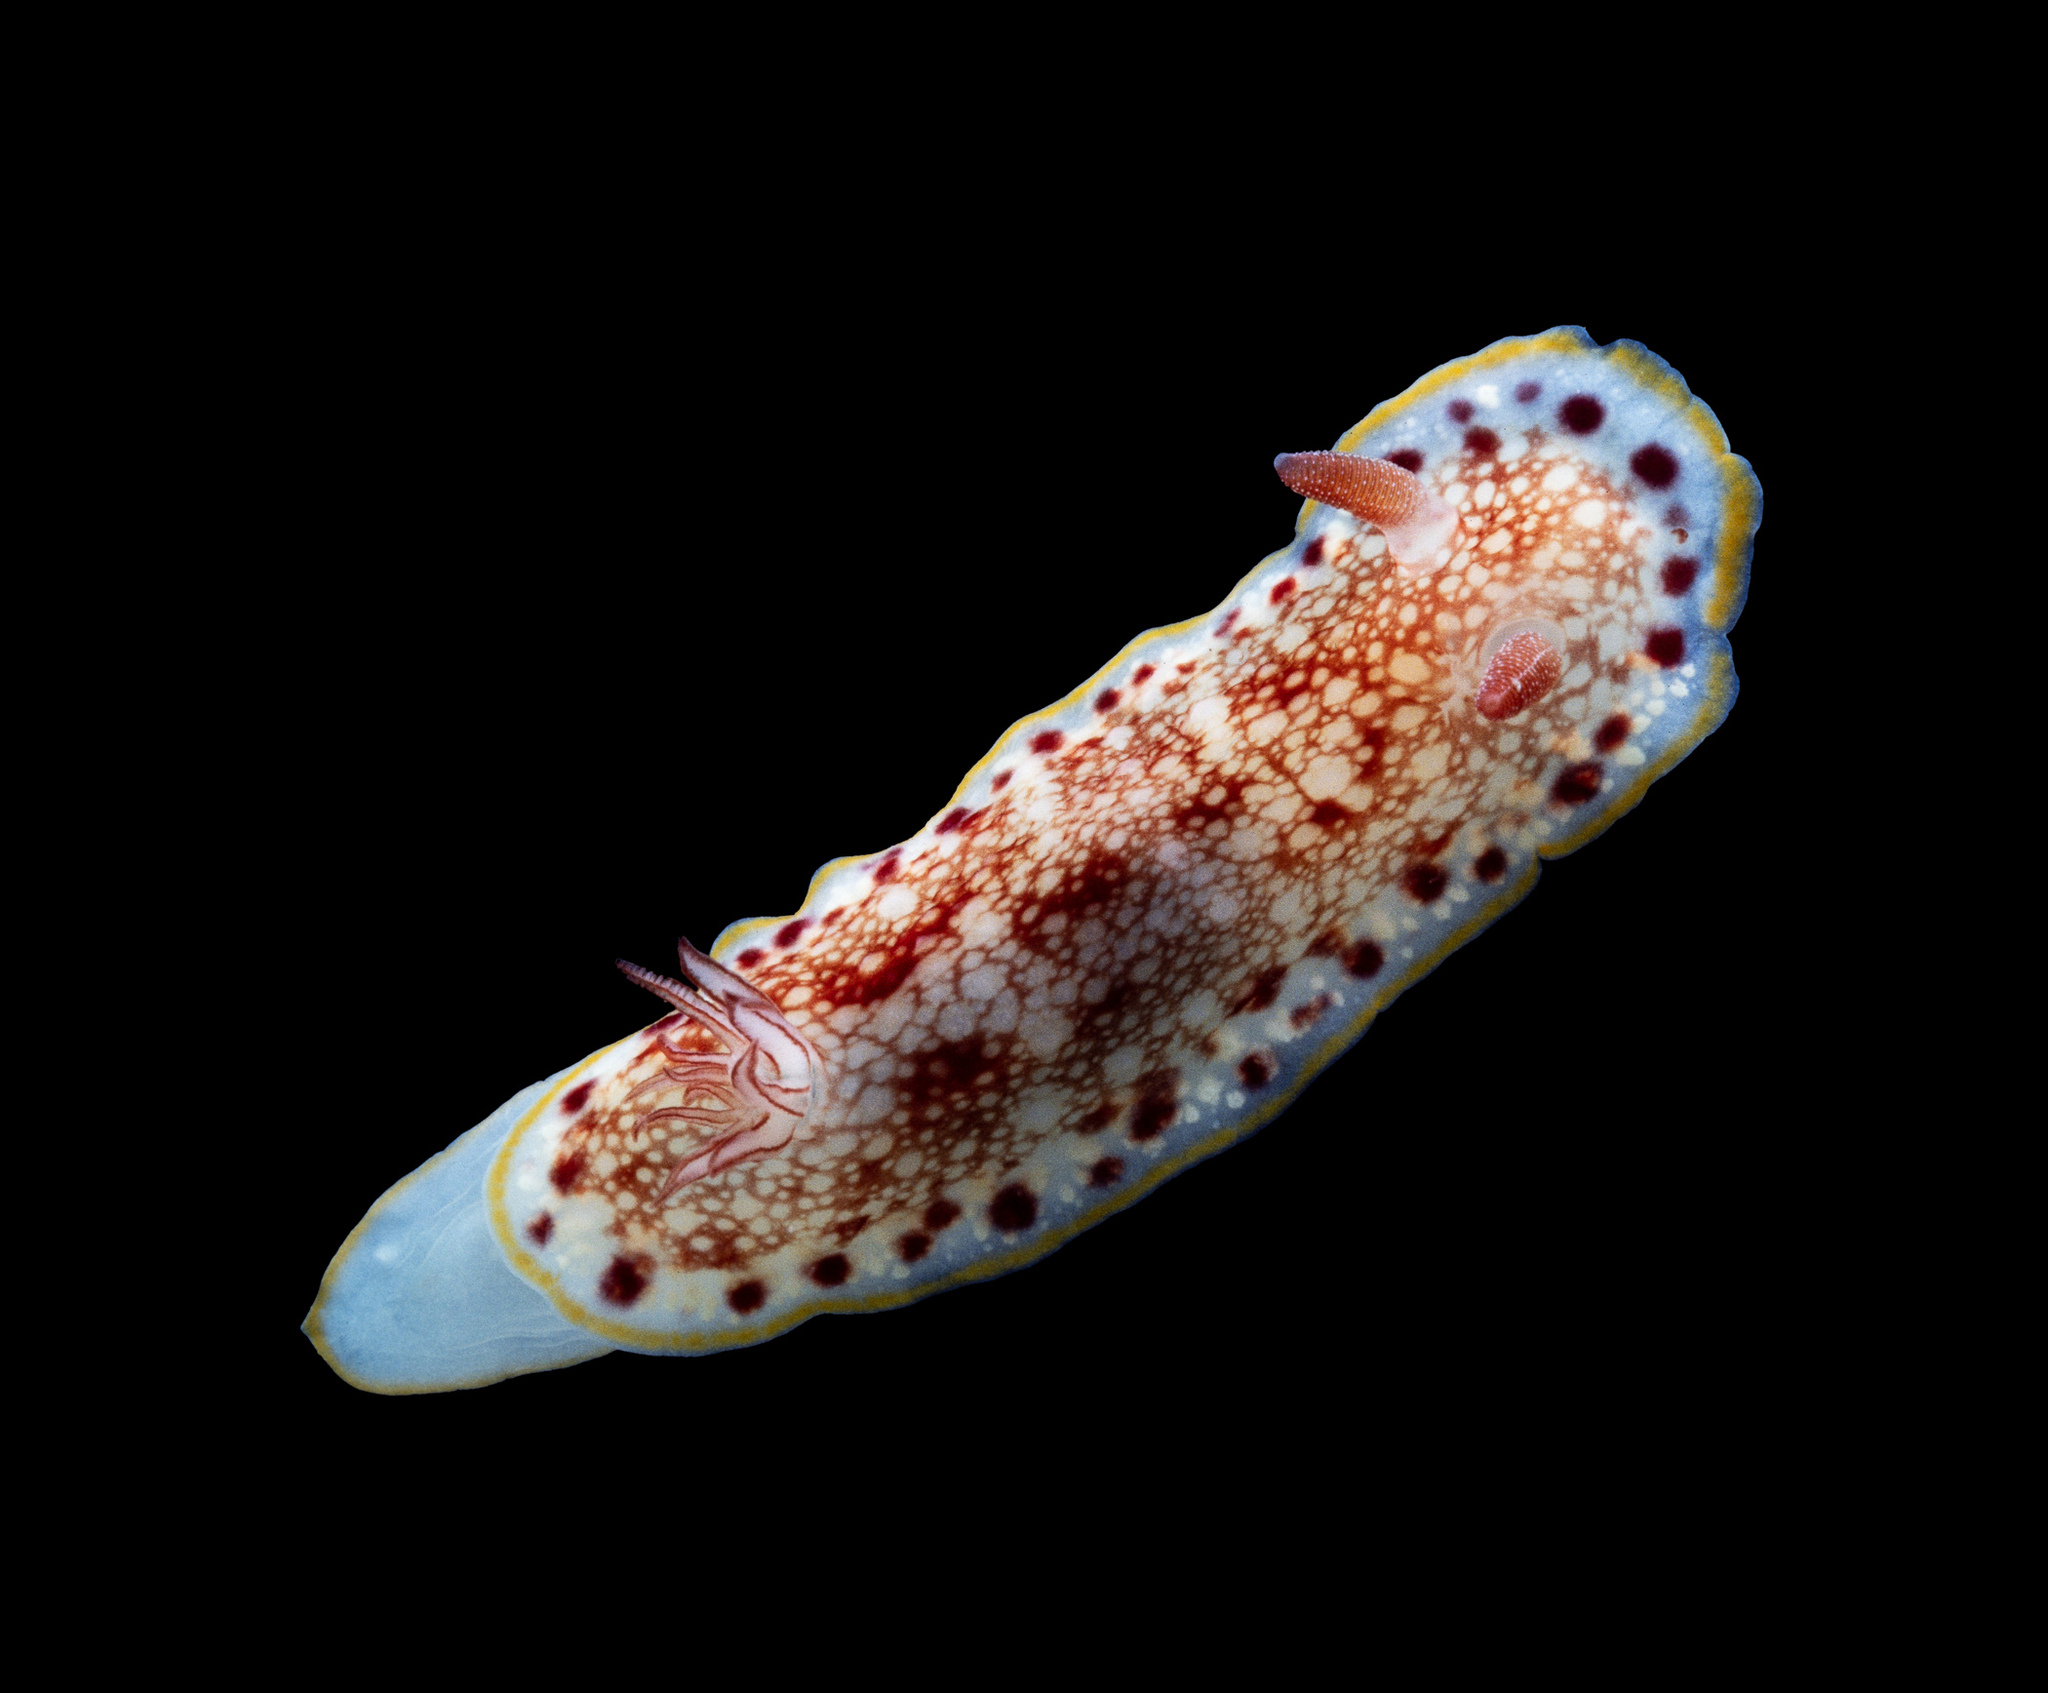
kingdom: Animalia
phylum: Mollusca
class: Gastropoda
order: Nudibranchia
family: Chromodorididae
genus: Goniobranchus
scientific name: Goniobranchus alderi
